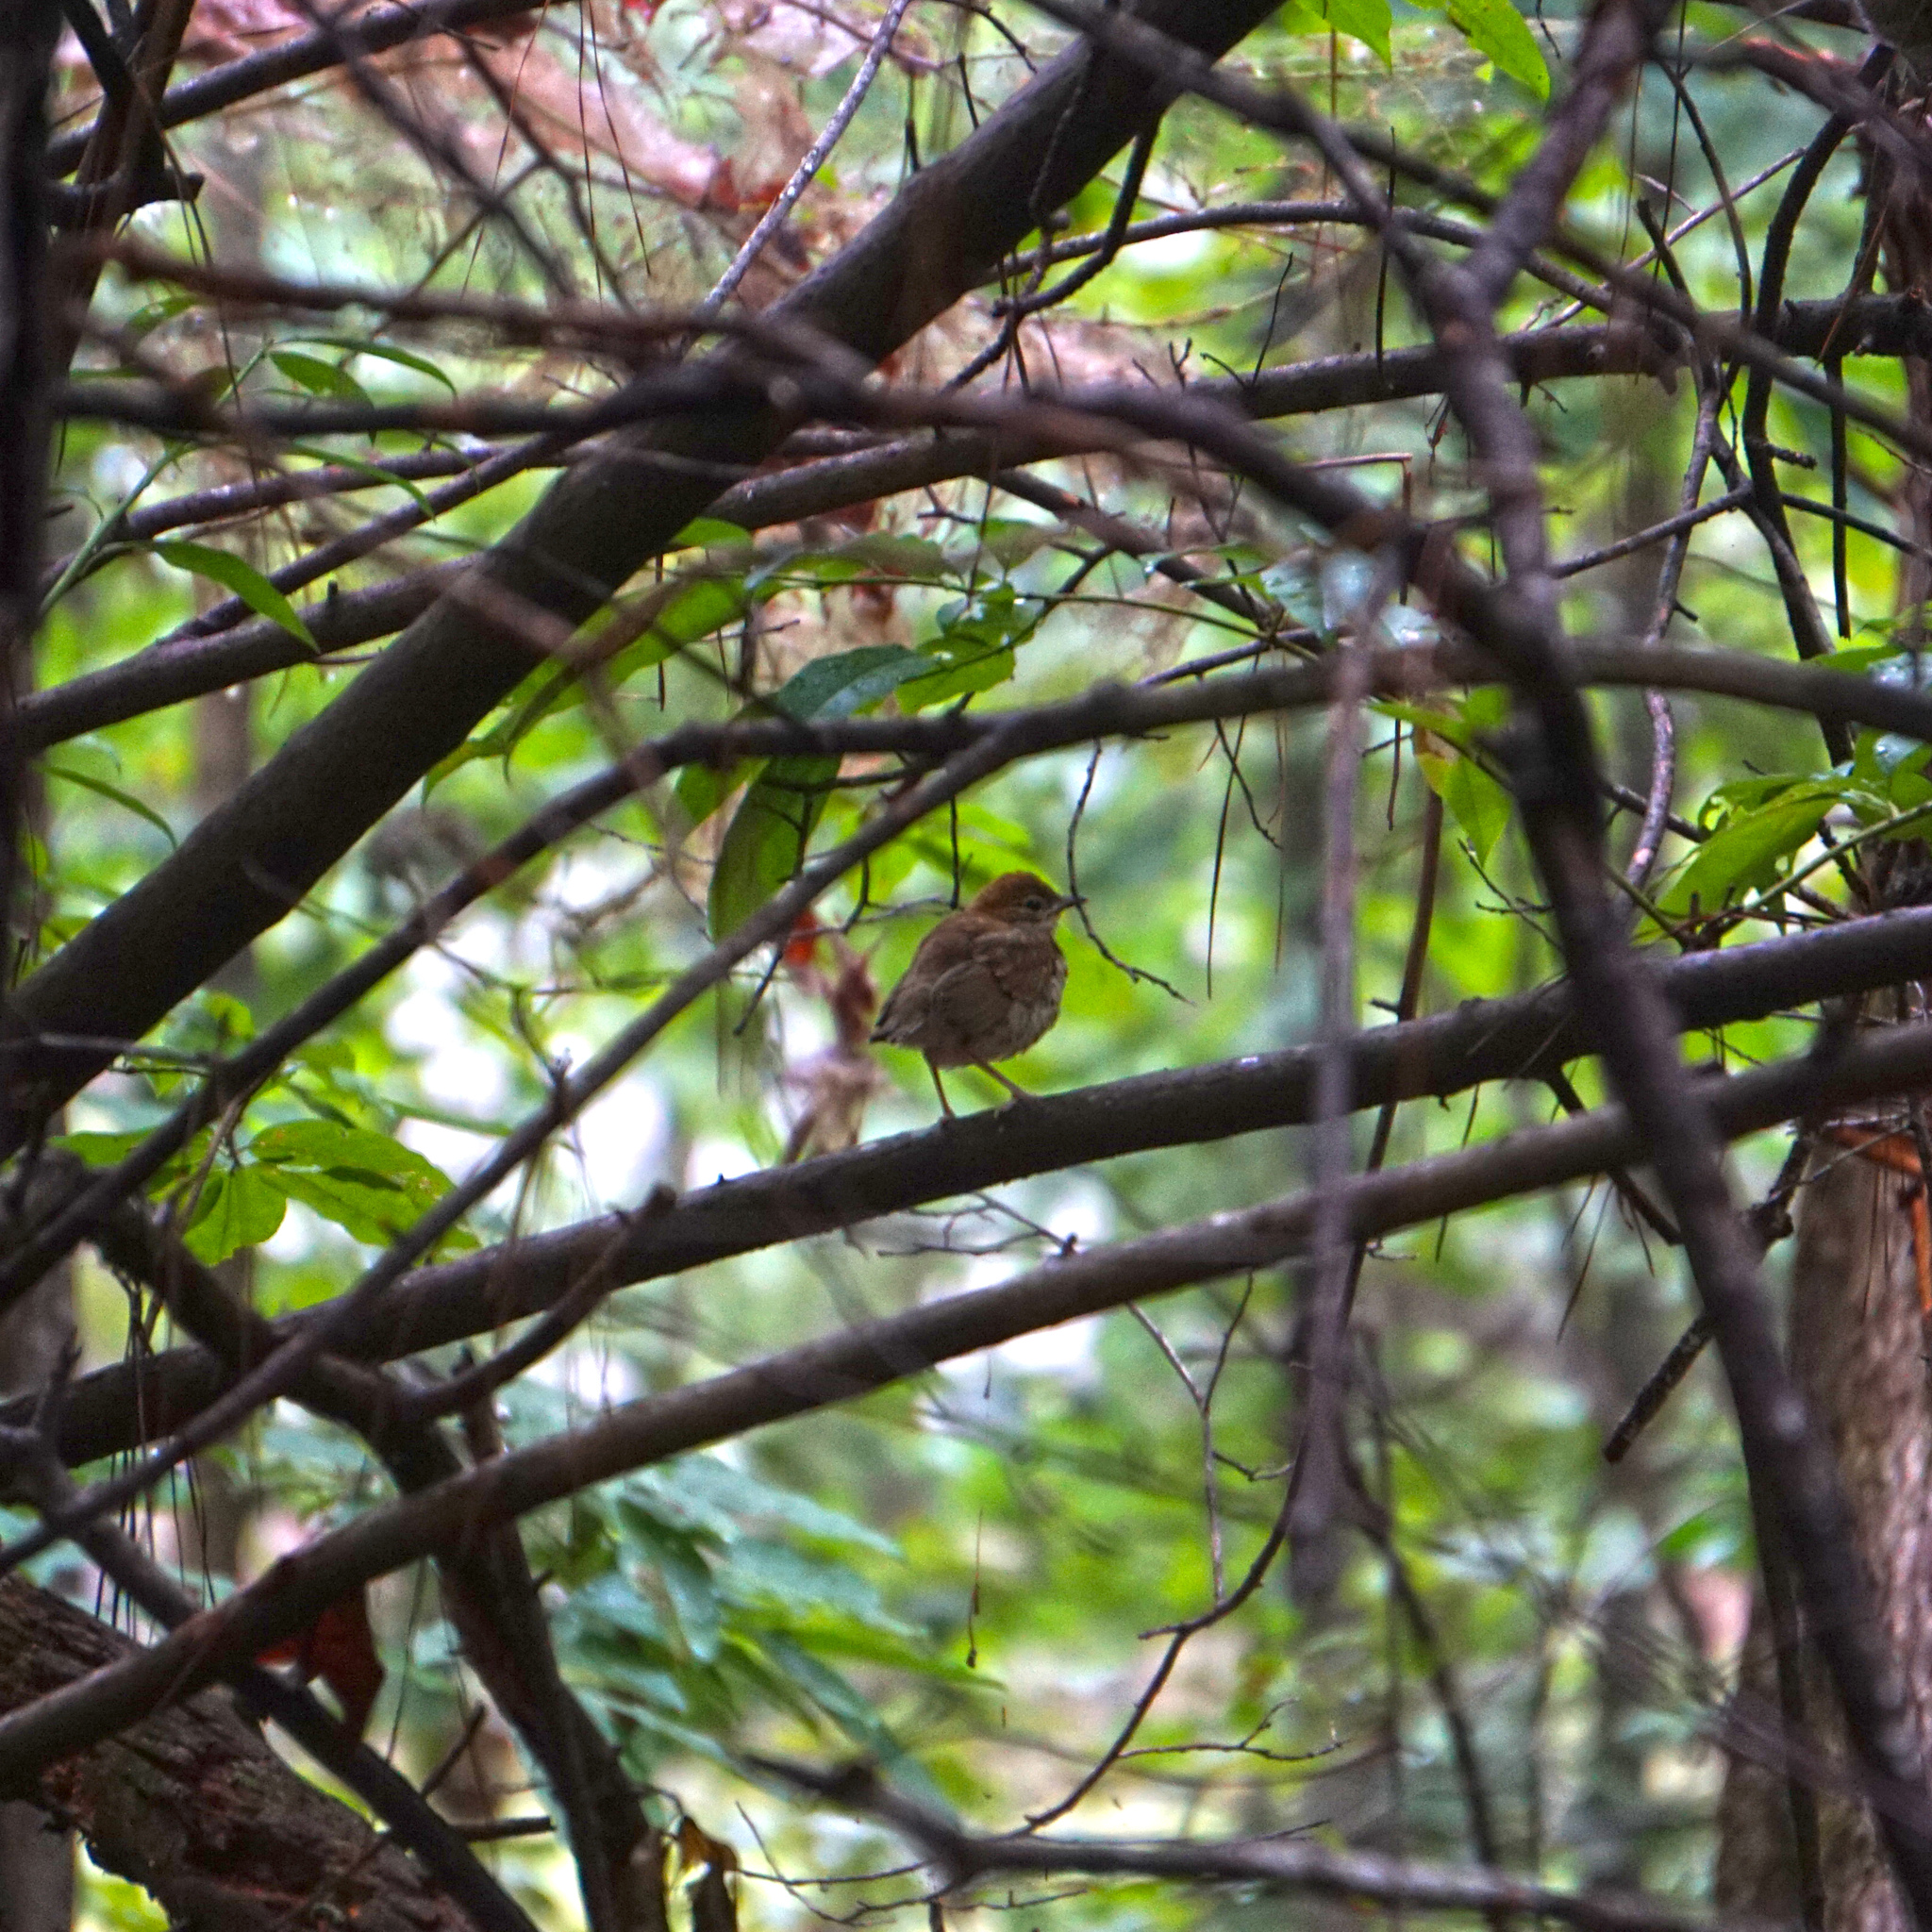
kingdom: Animalia
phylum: Chordata
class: Aves
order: Passeriformes
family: Turdidae
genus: Hylocichla
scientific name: Hylocichla mustelina
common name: Wood thrush
